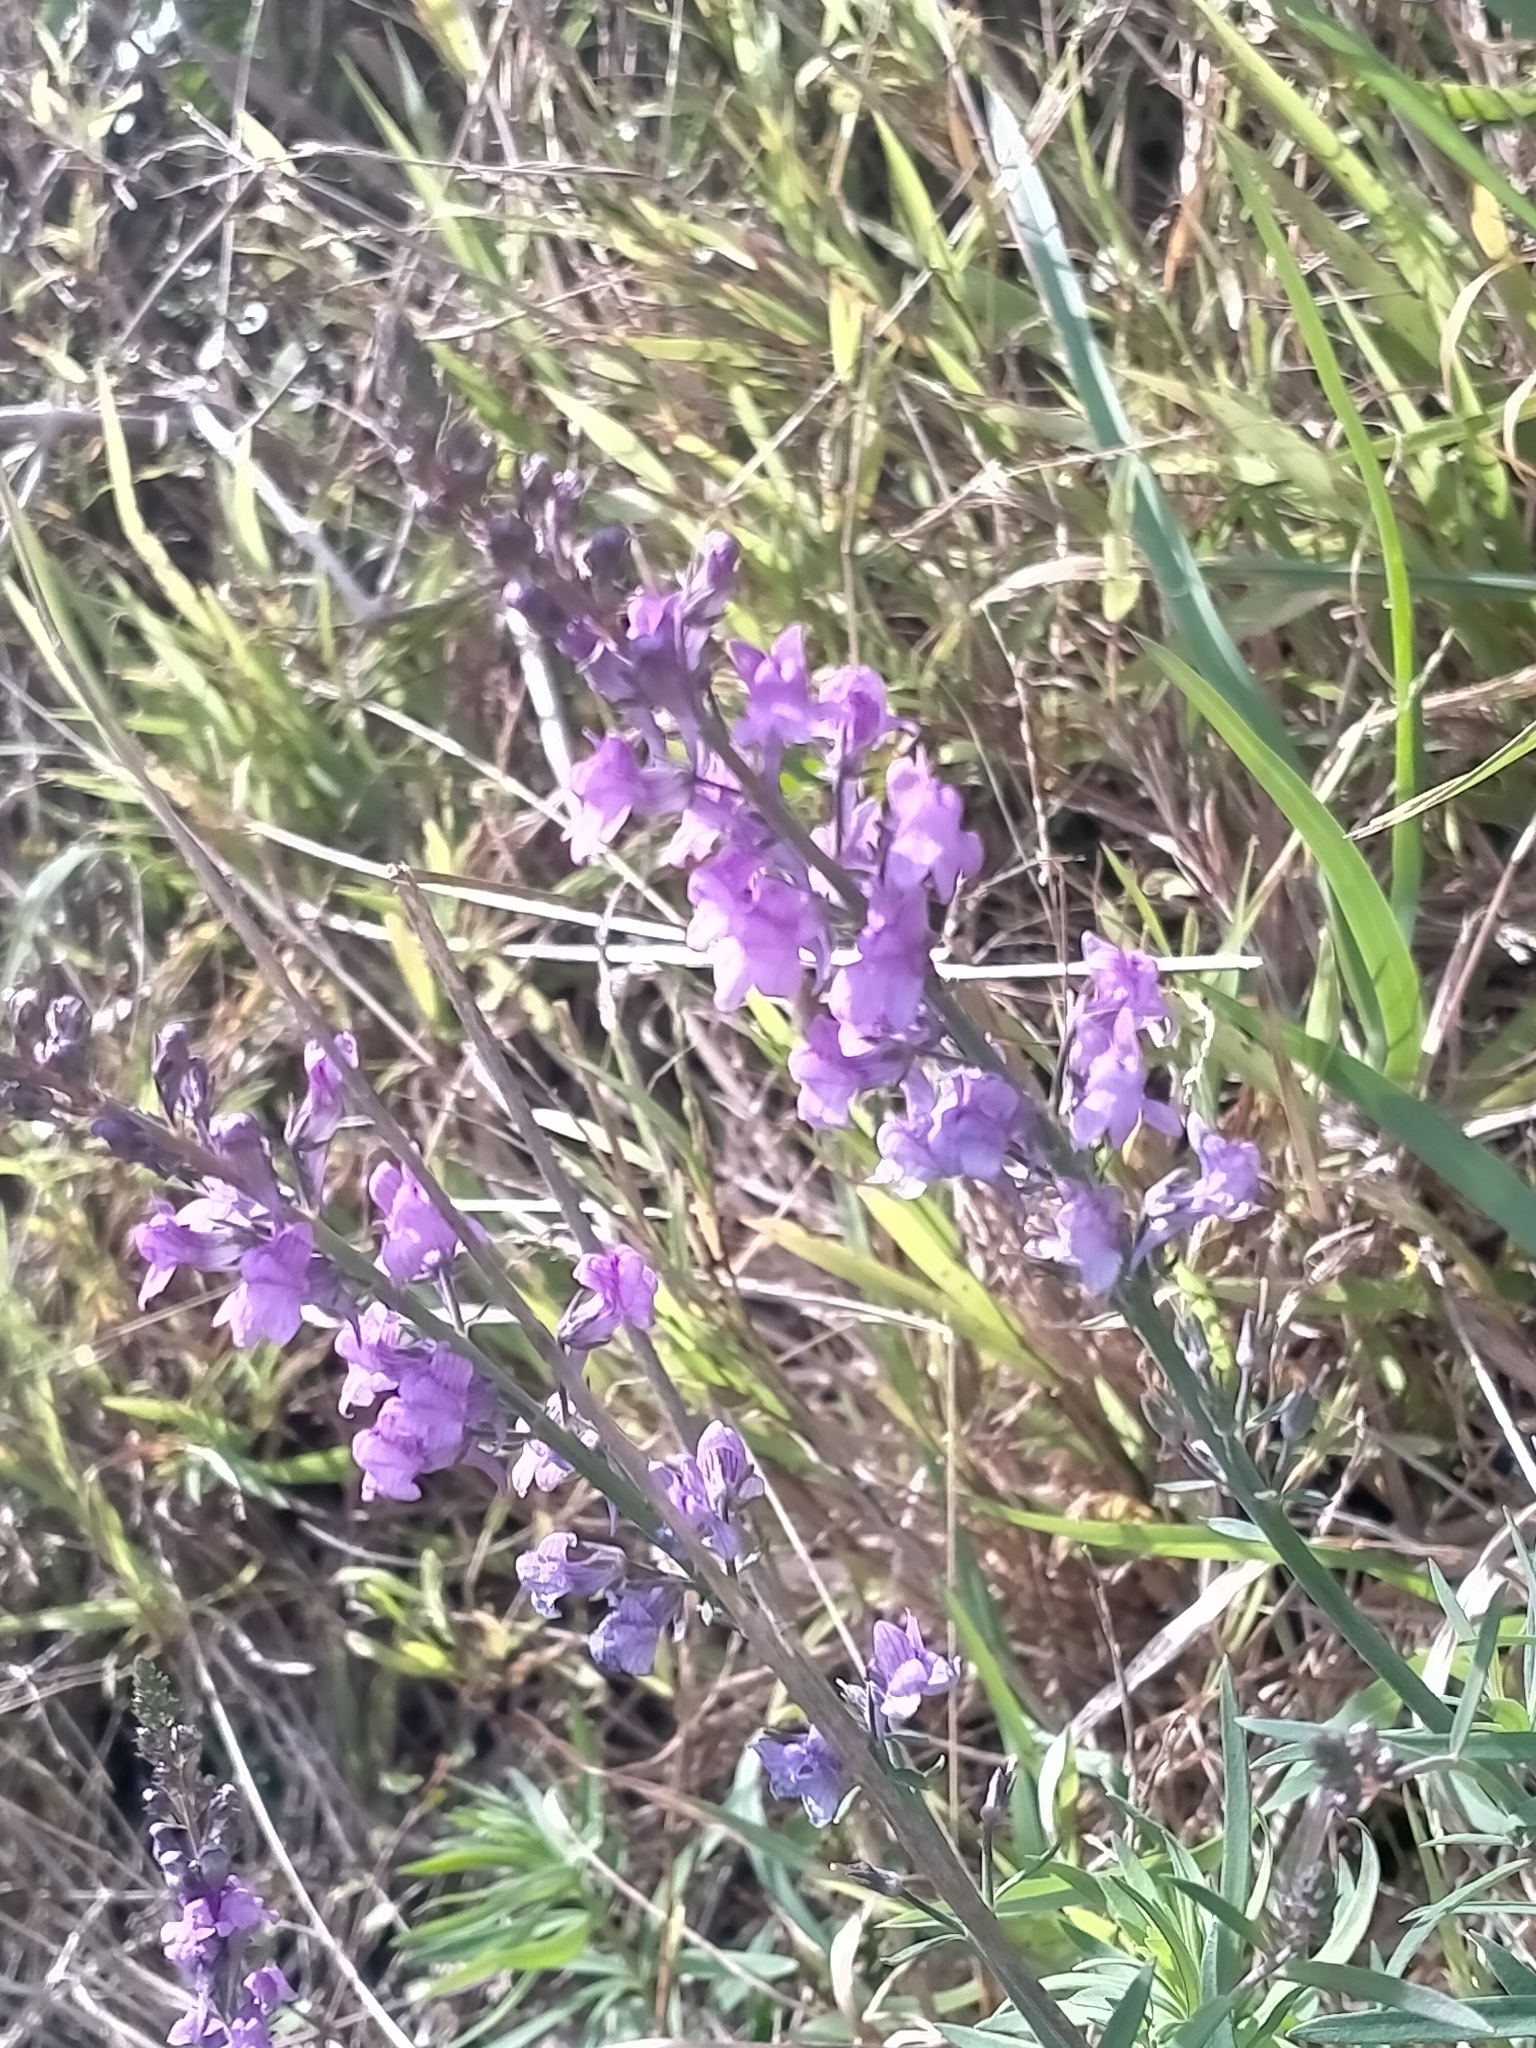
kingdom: Plantae
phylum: Tracheophyta
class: Magnoliopsida
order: Lamiales
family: Plantaginaceae
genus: Linaria
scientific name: Linaria purpurea
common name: Purple toadflax
